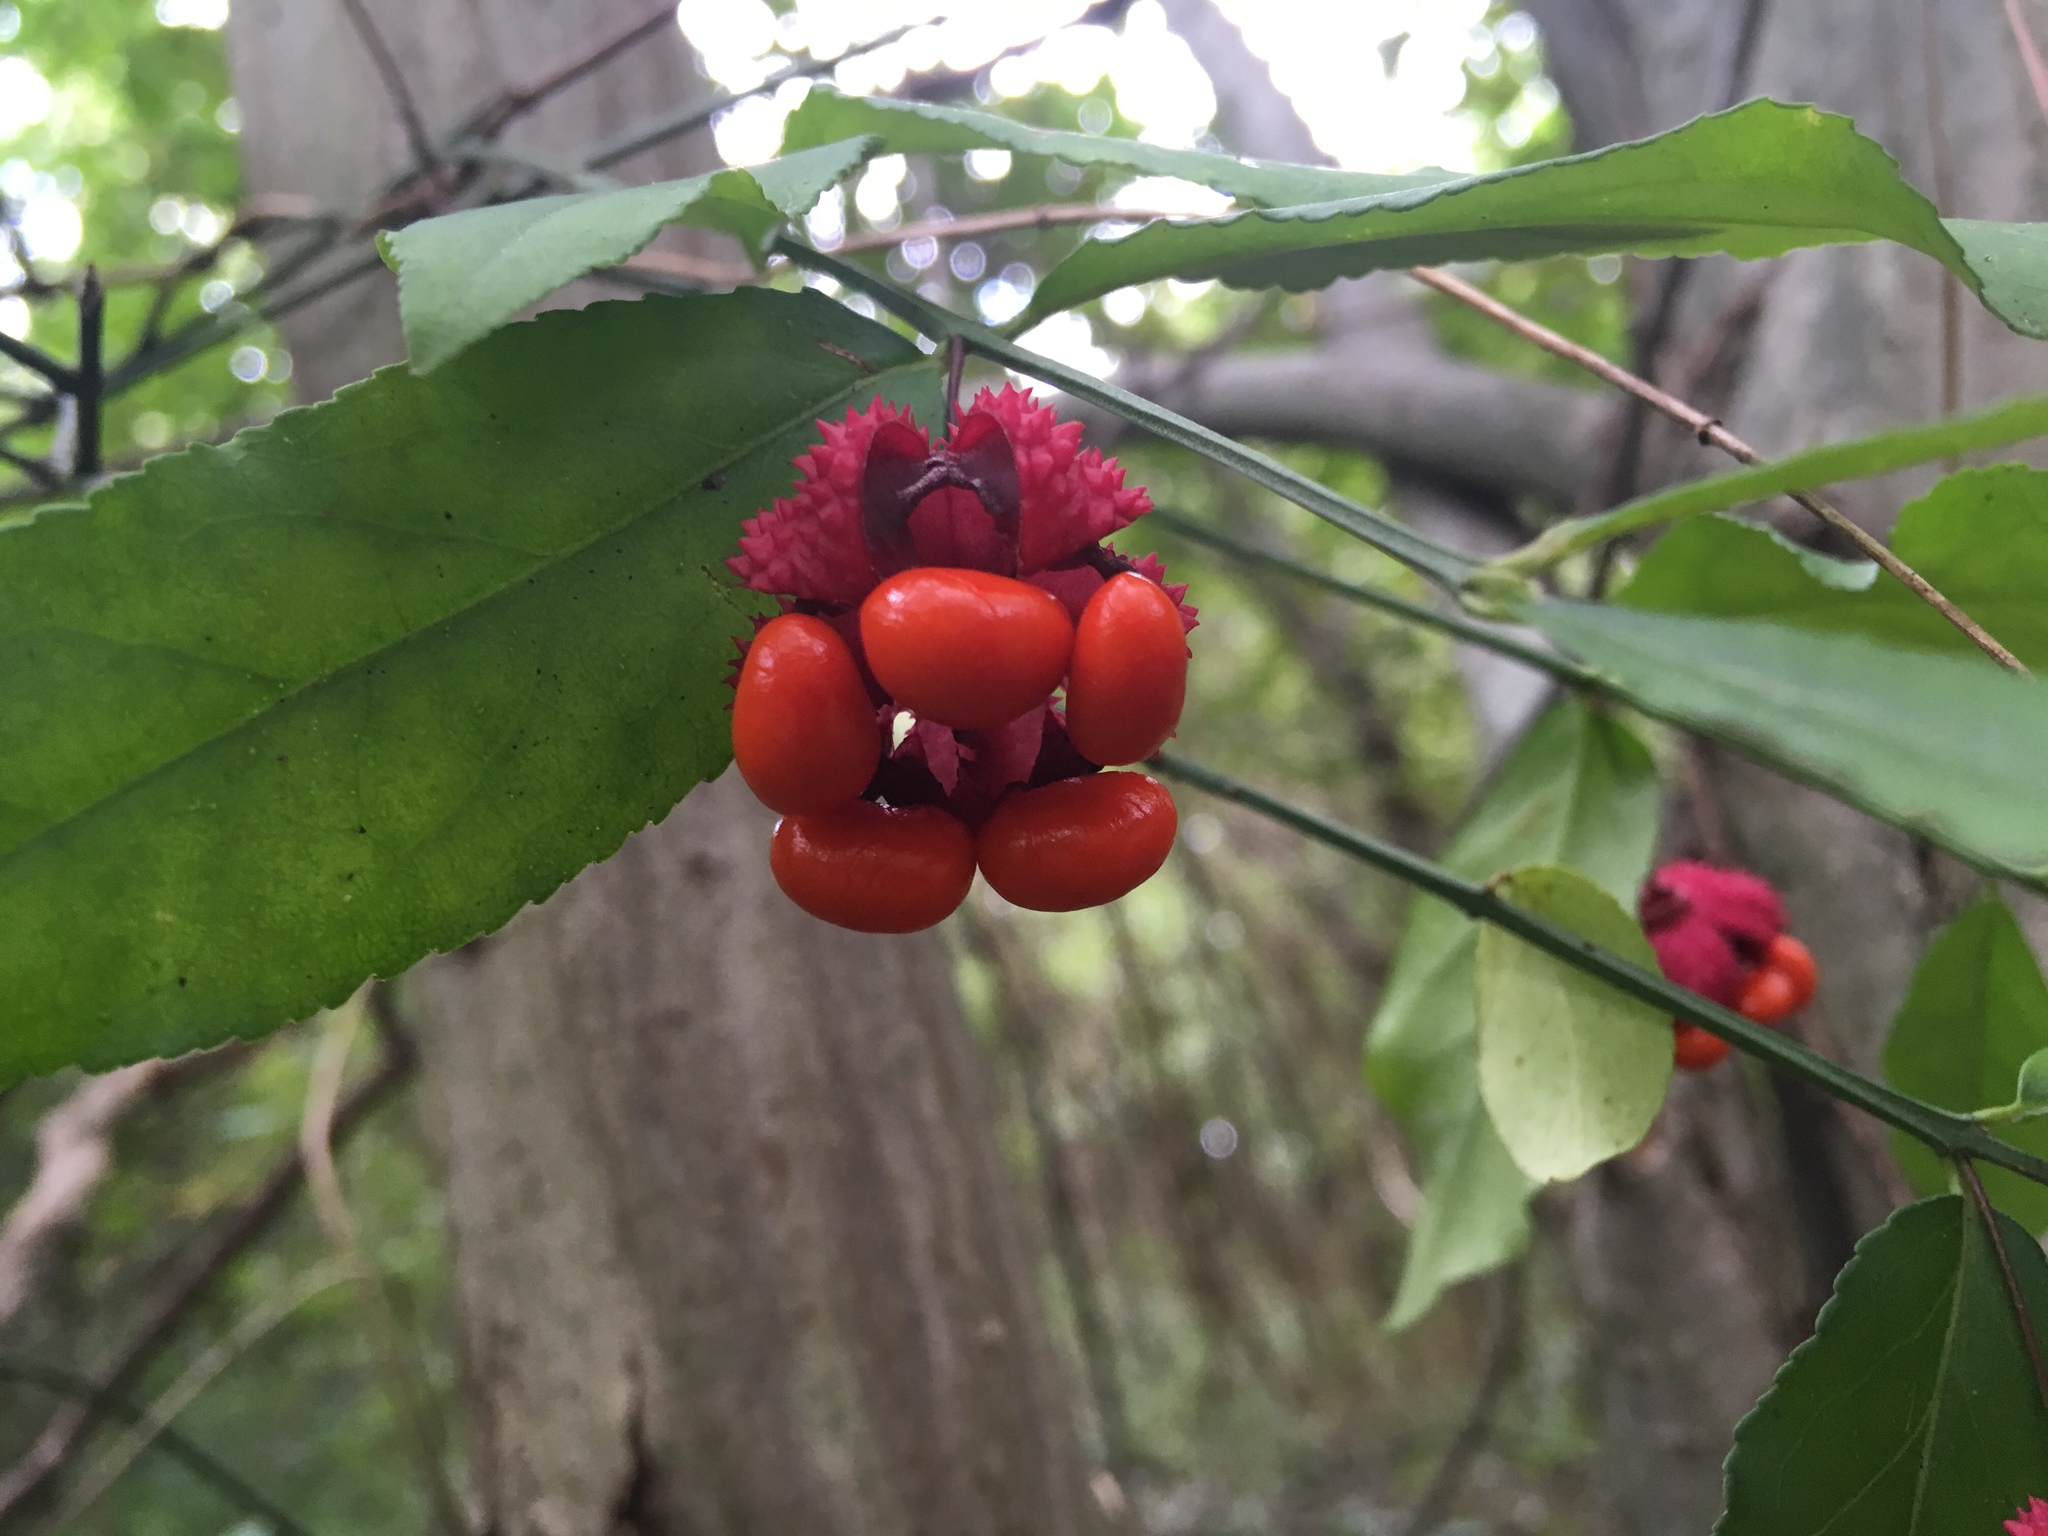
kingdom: Plantae
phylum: Tracheophyta
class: Magnoliopsida
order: Celastrales
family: Celastraceae
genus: Euonymus
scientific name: Euonymus americanus
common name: Bursting-heart
